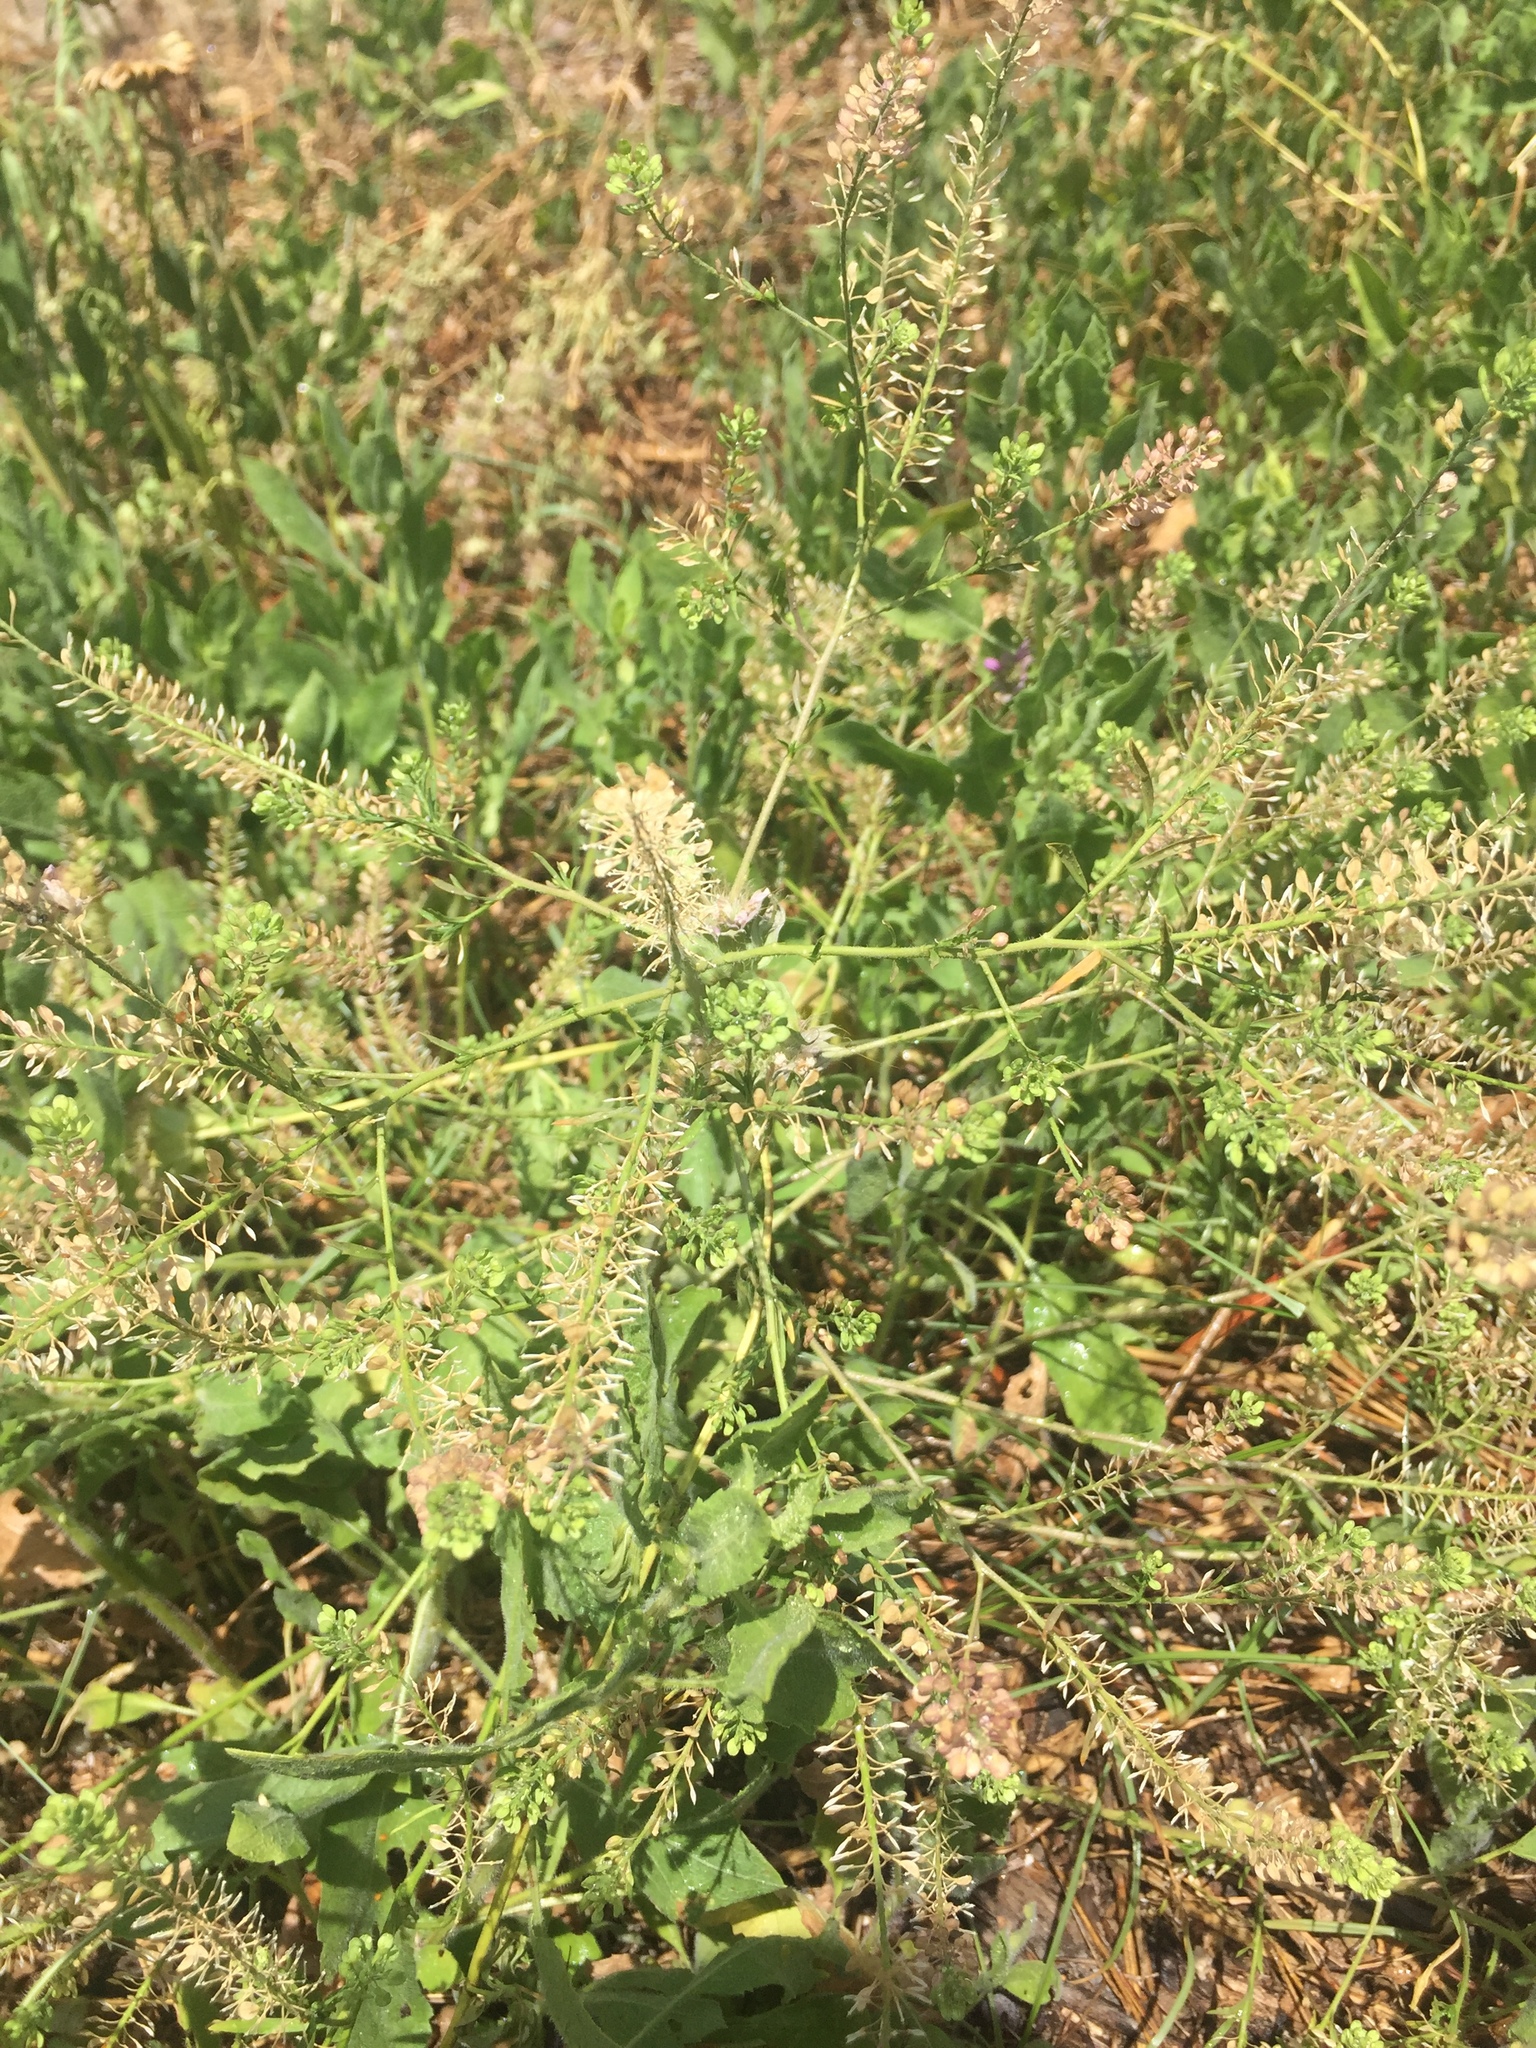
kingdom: Plantae
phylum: Tracheophyta
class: Magnoliopsida
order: Brassicales
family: Brassicaceae
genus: Lepidium
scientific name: Lepidium virginicum
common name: Least pepperwort
